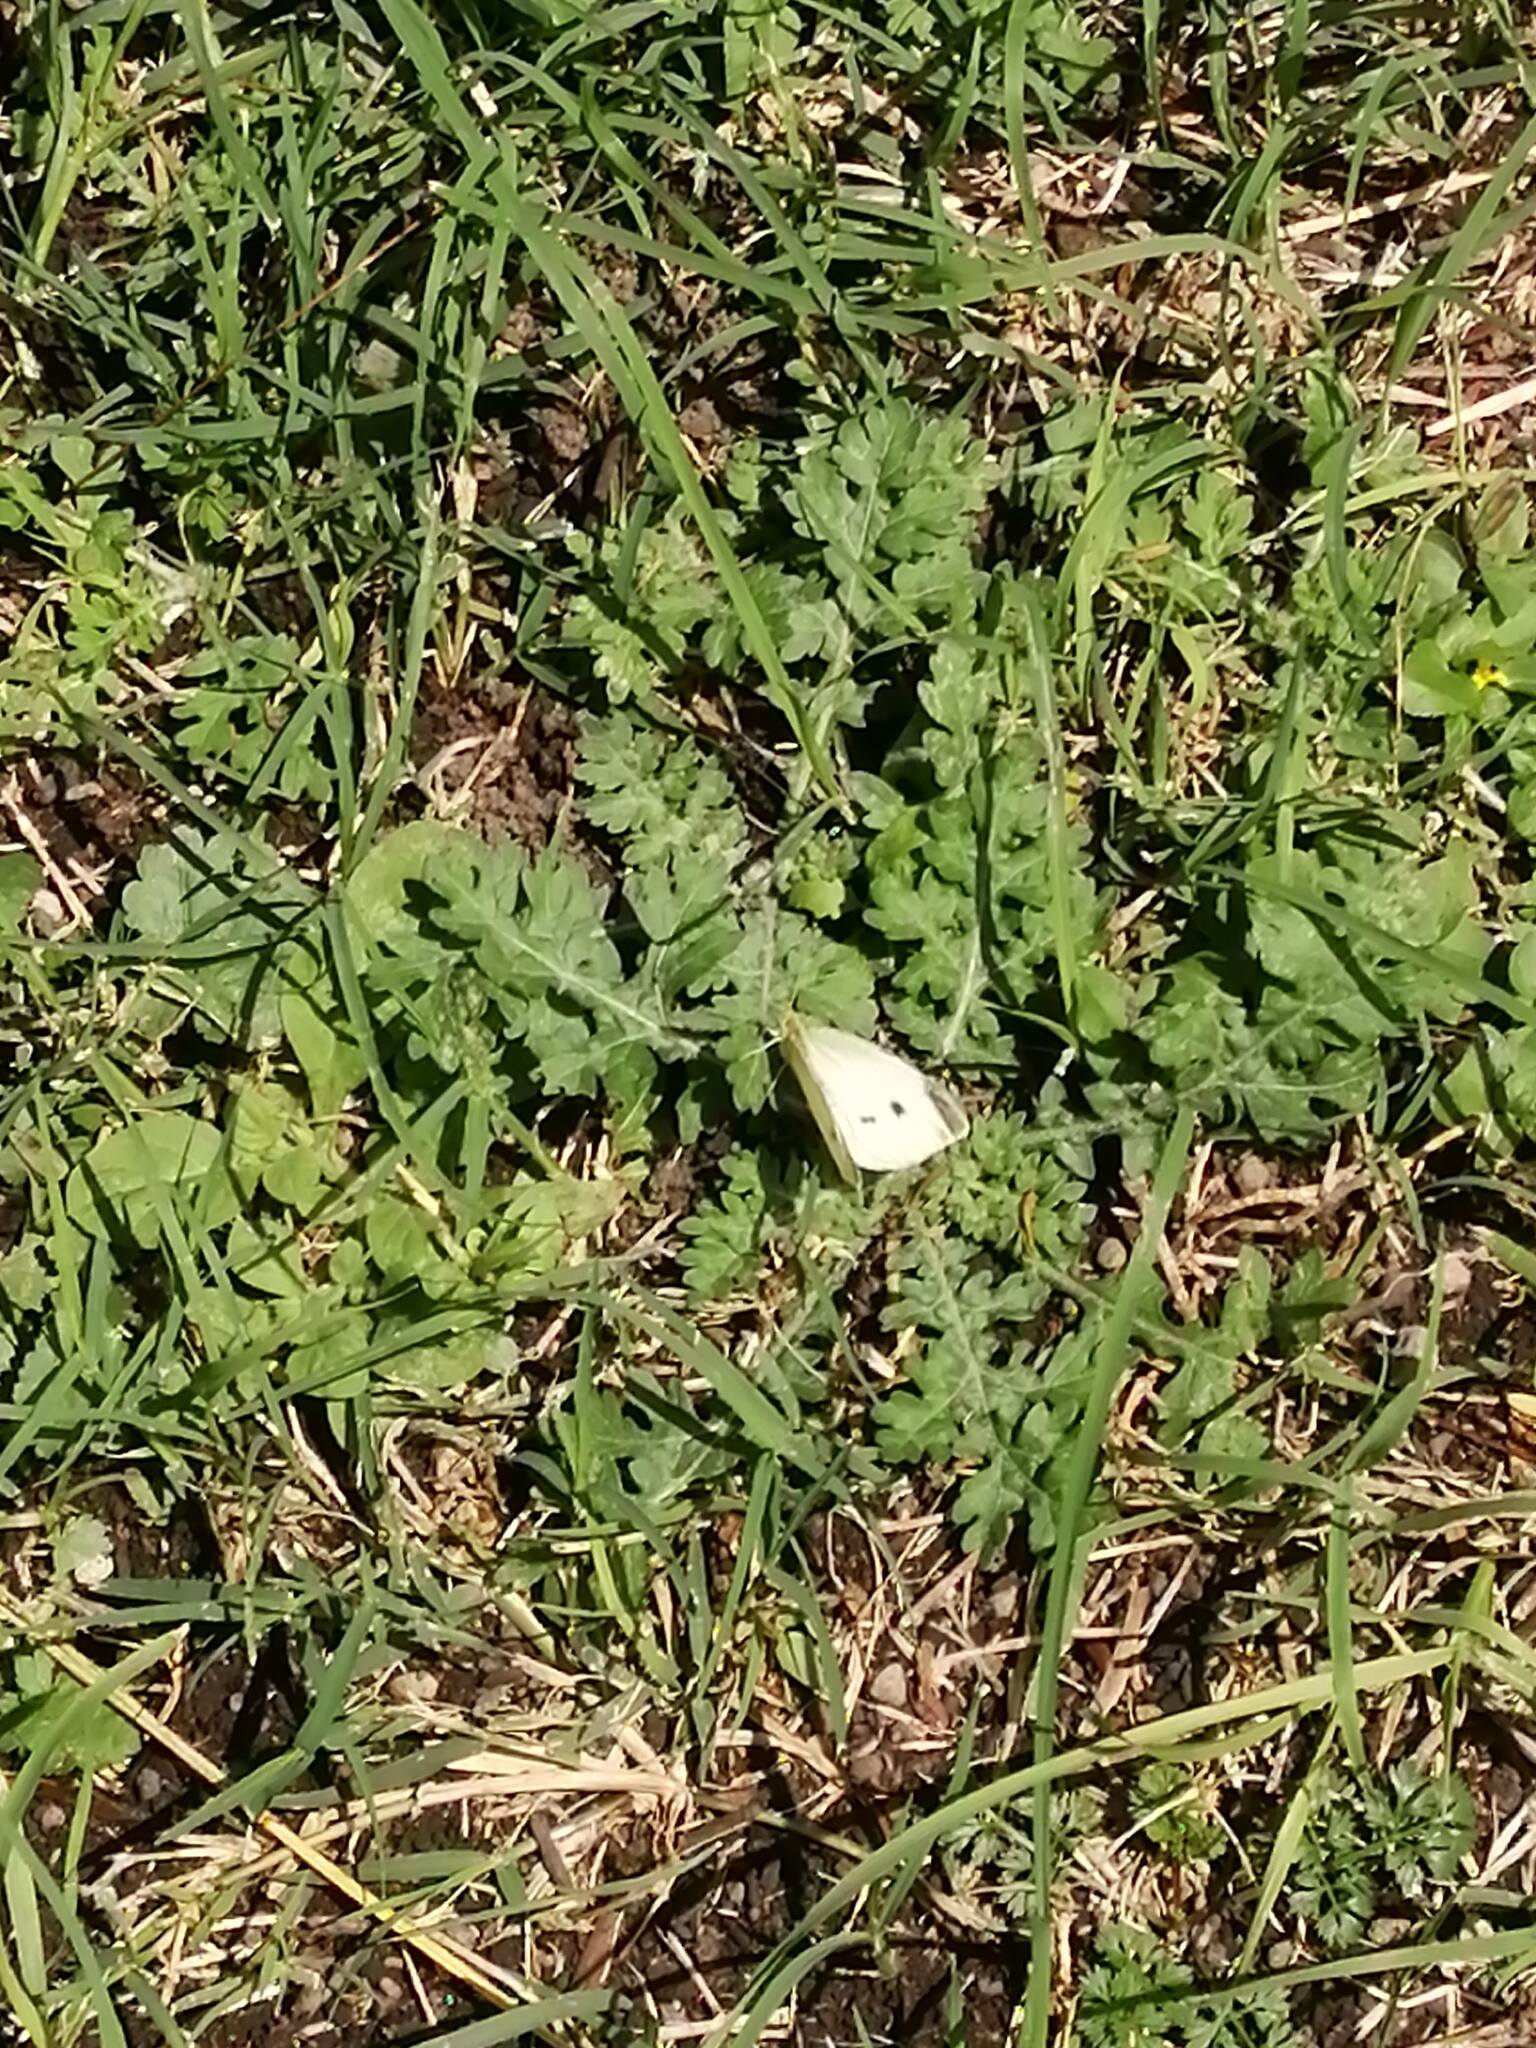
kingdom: Animalia
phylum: Arthropoda
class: Insecta
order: Lepidoptera
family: Pieridae
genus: Pieris
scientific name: Pieris rapae
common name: Small white
